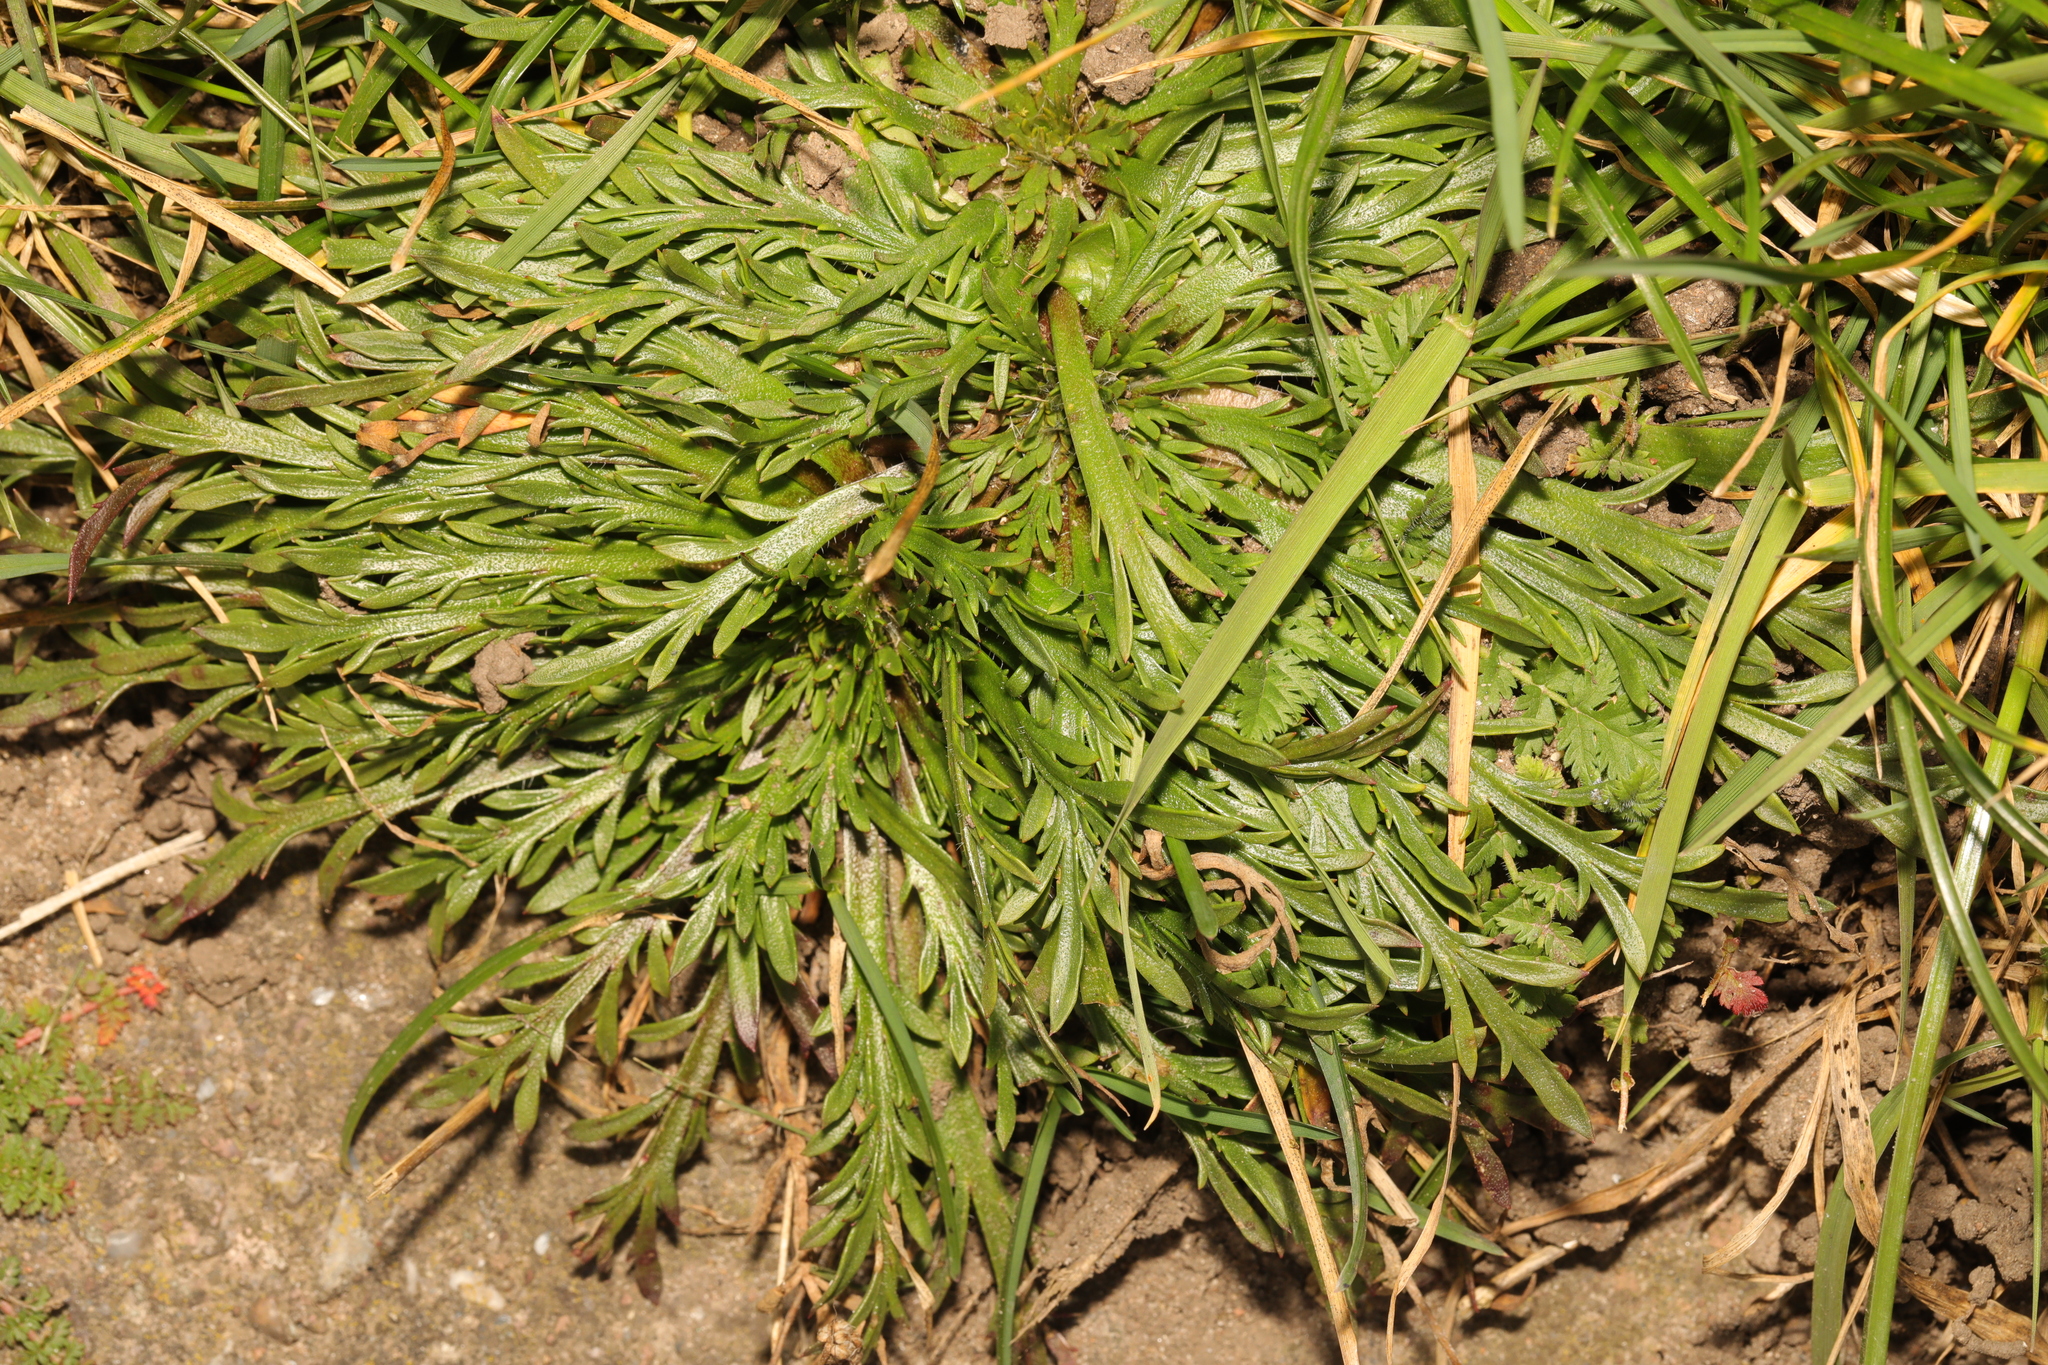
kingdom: Plantae
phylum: Tracheophyta
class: Magnoliopsida
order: Lamiales
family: Plantaginaceae
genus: Plantago
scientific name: Plantago coronopus
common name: Buck's-horn plantain
